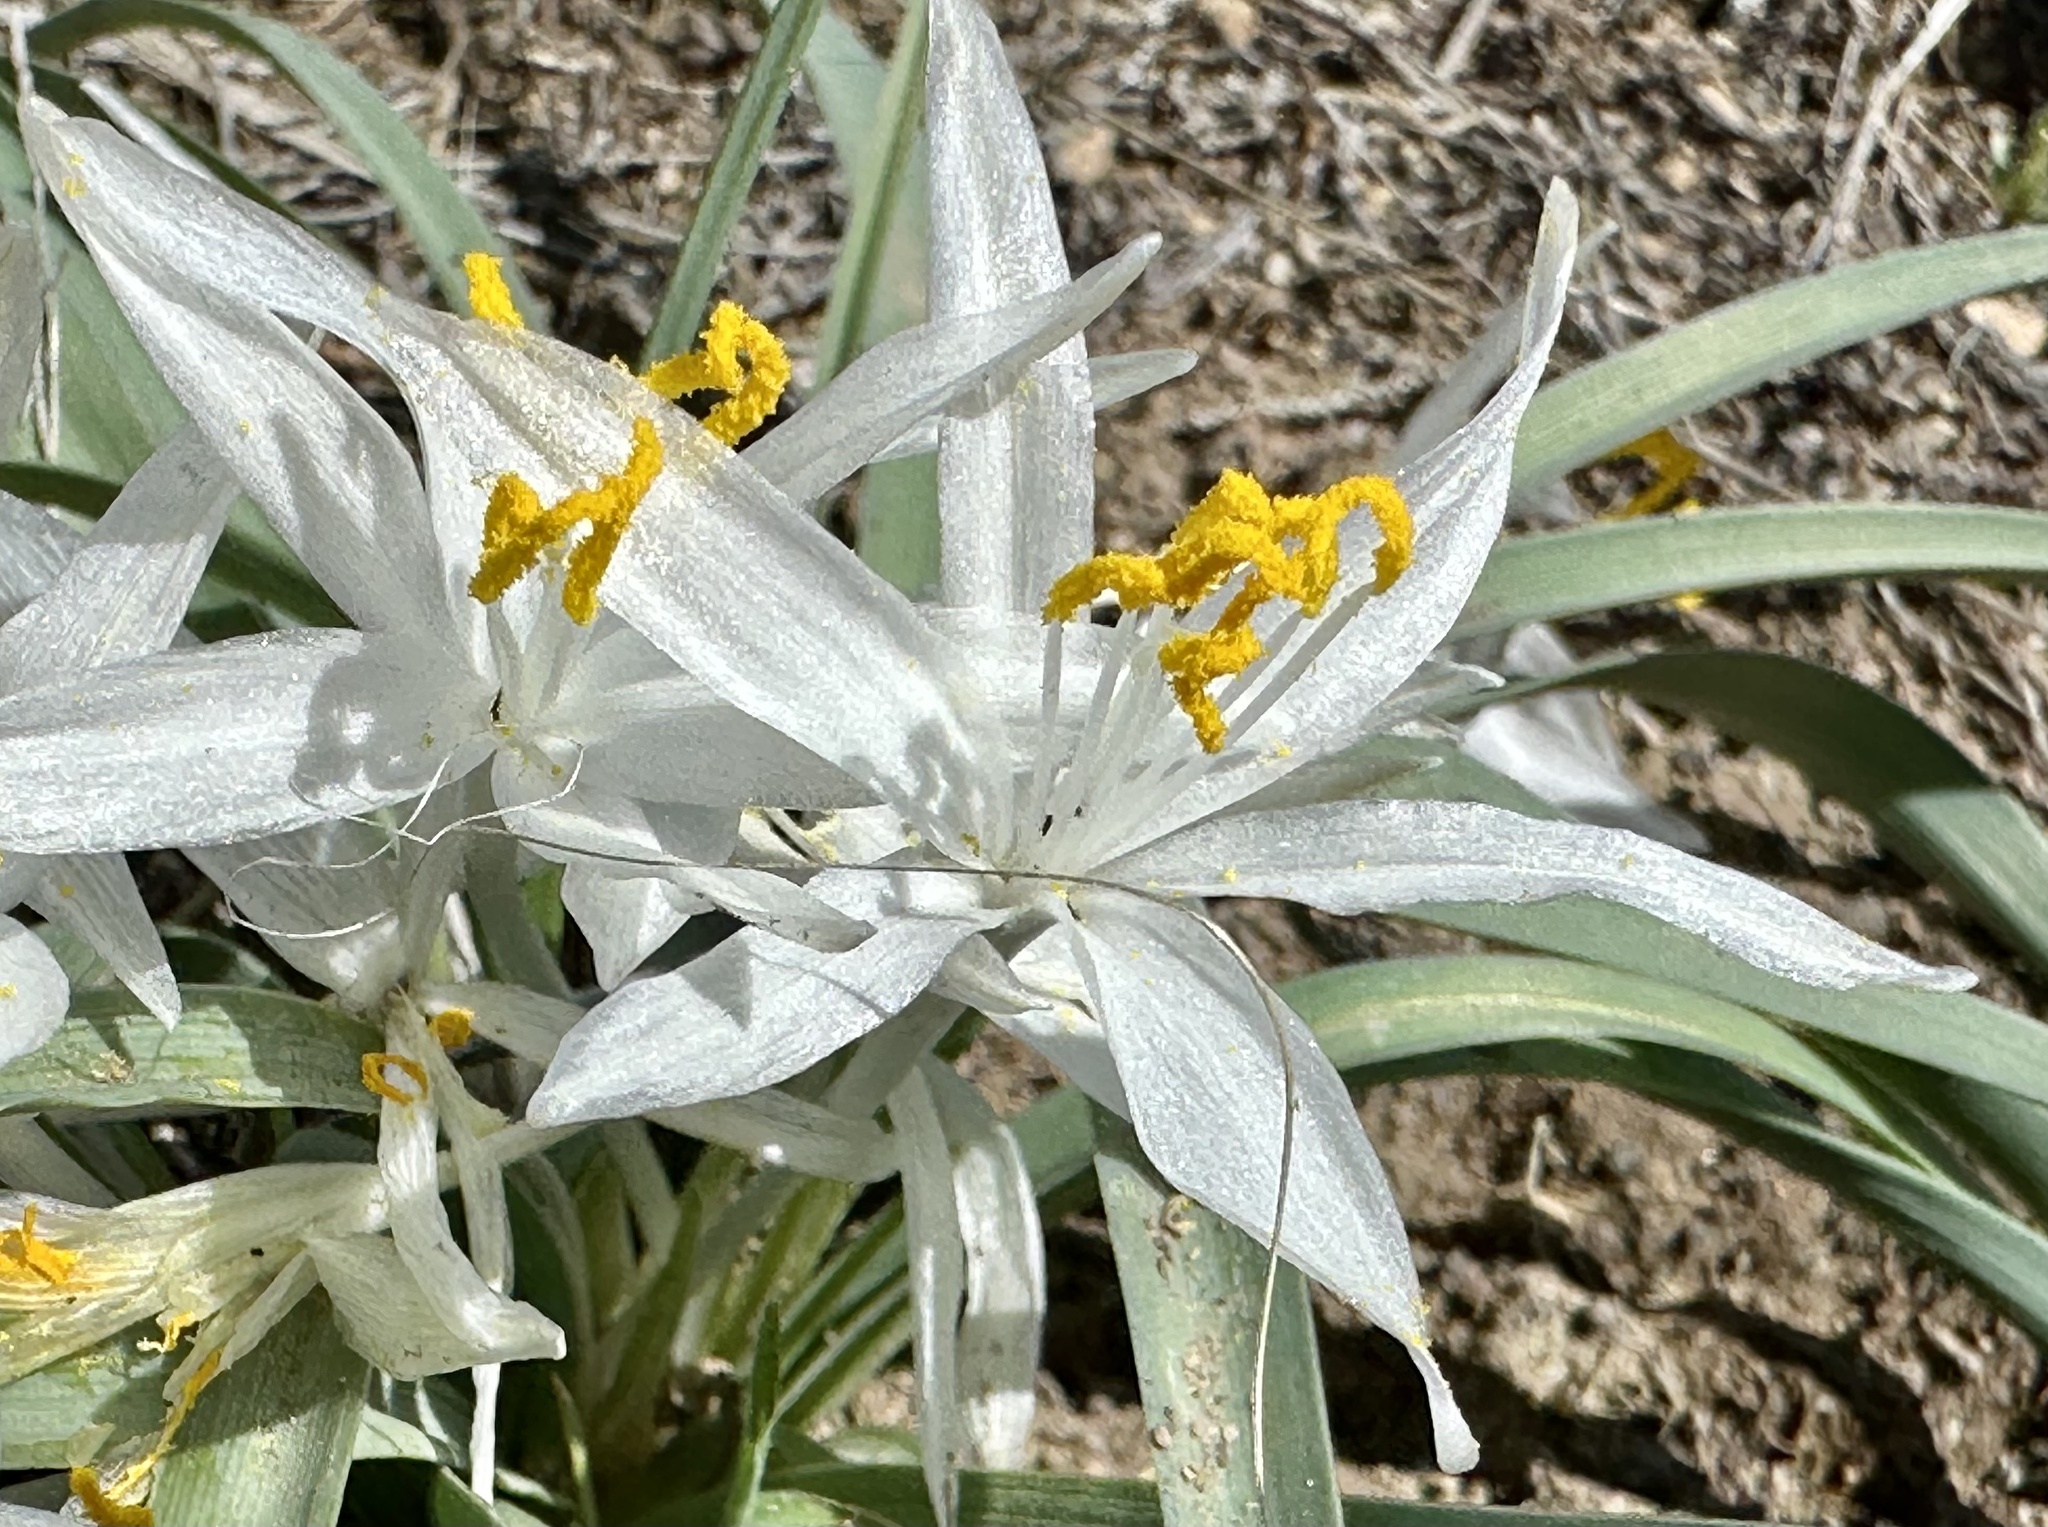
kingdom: Plantae
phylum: Tracheophyta
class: Liliopsida
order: Asparagales
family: Asparagaceae
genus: Leucocrinum
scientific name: Leucocrinum montanum
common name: Mountain-lily
